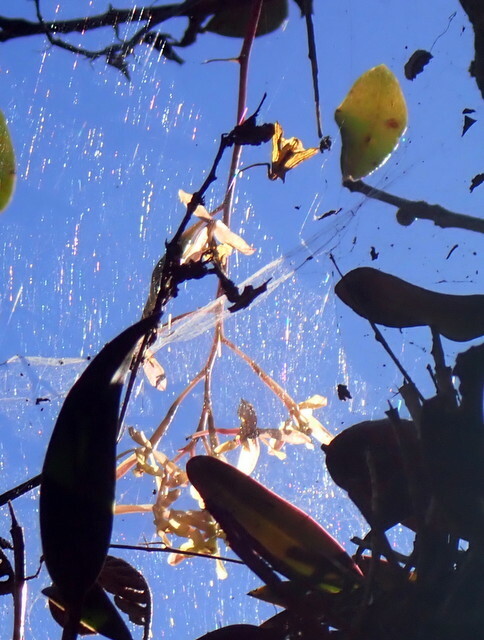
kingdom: Plantae
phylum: Tracheophyta
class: Liliopsida
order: Asparagales
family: Orchidaceae
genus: Epidendrum
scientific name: Epidendrum conopseum
